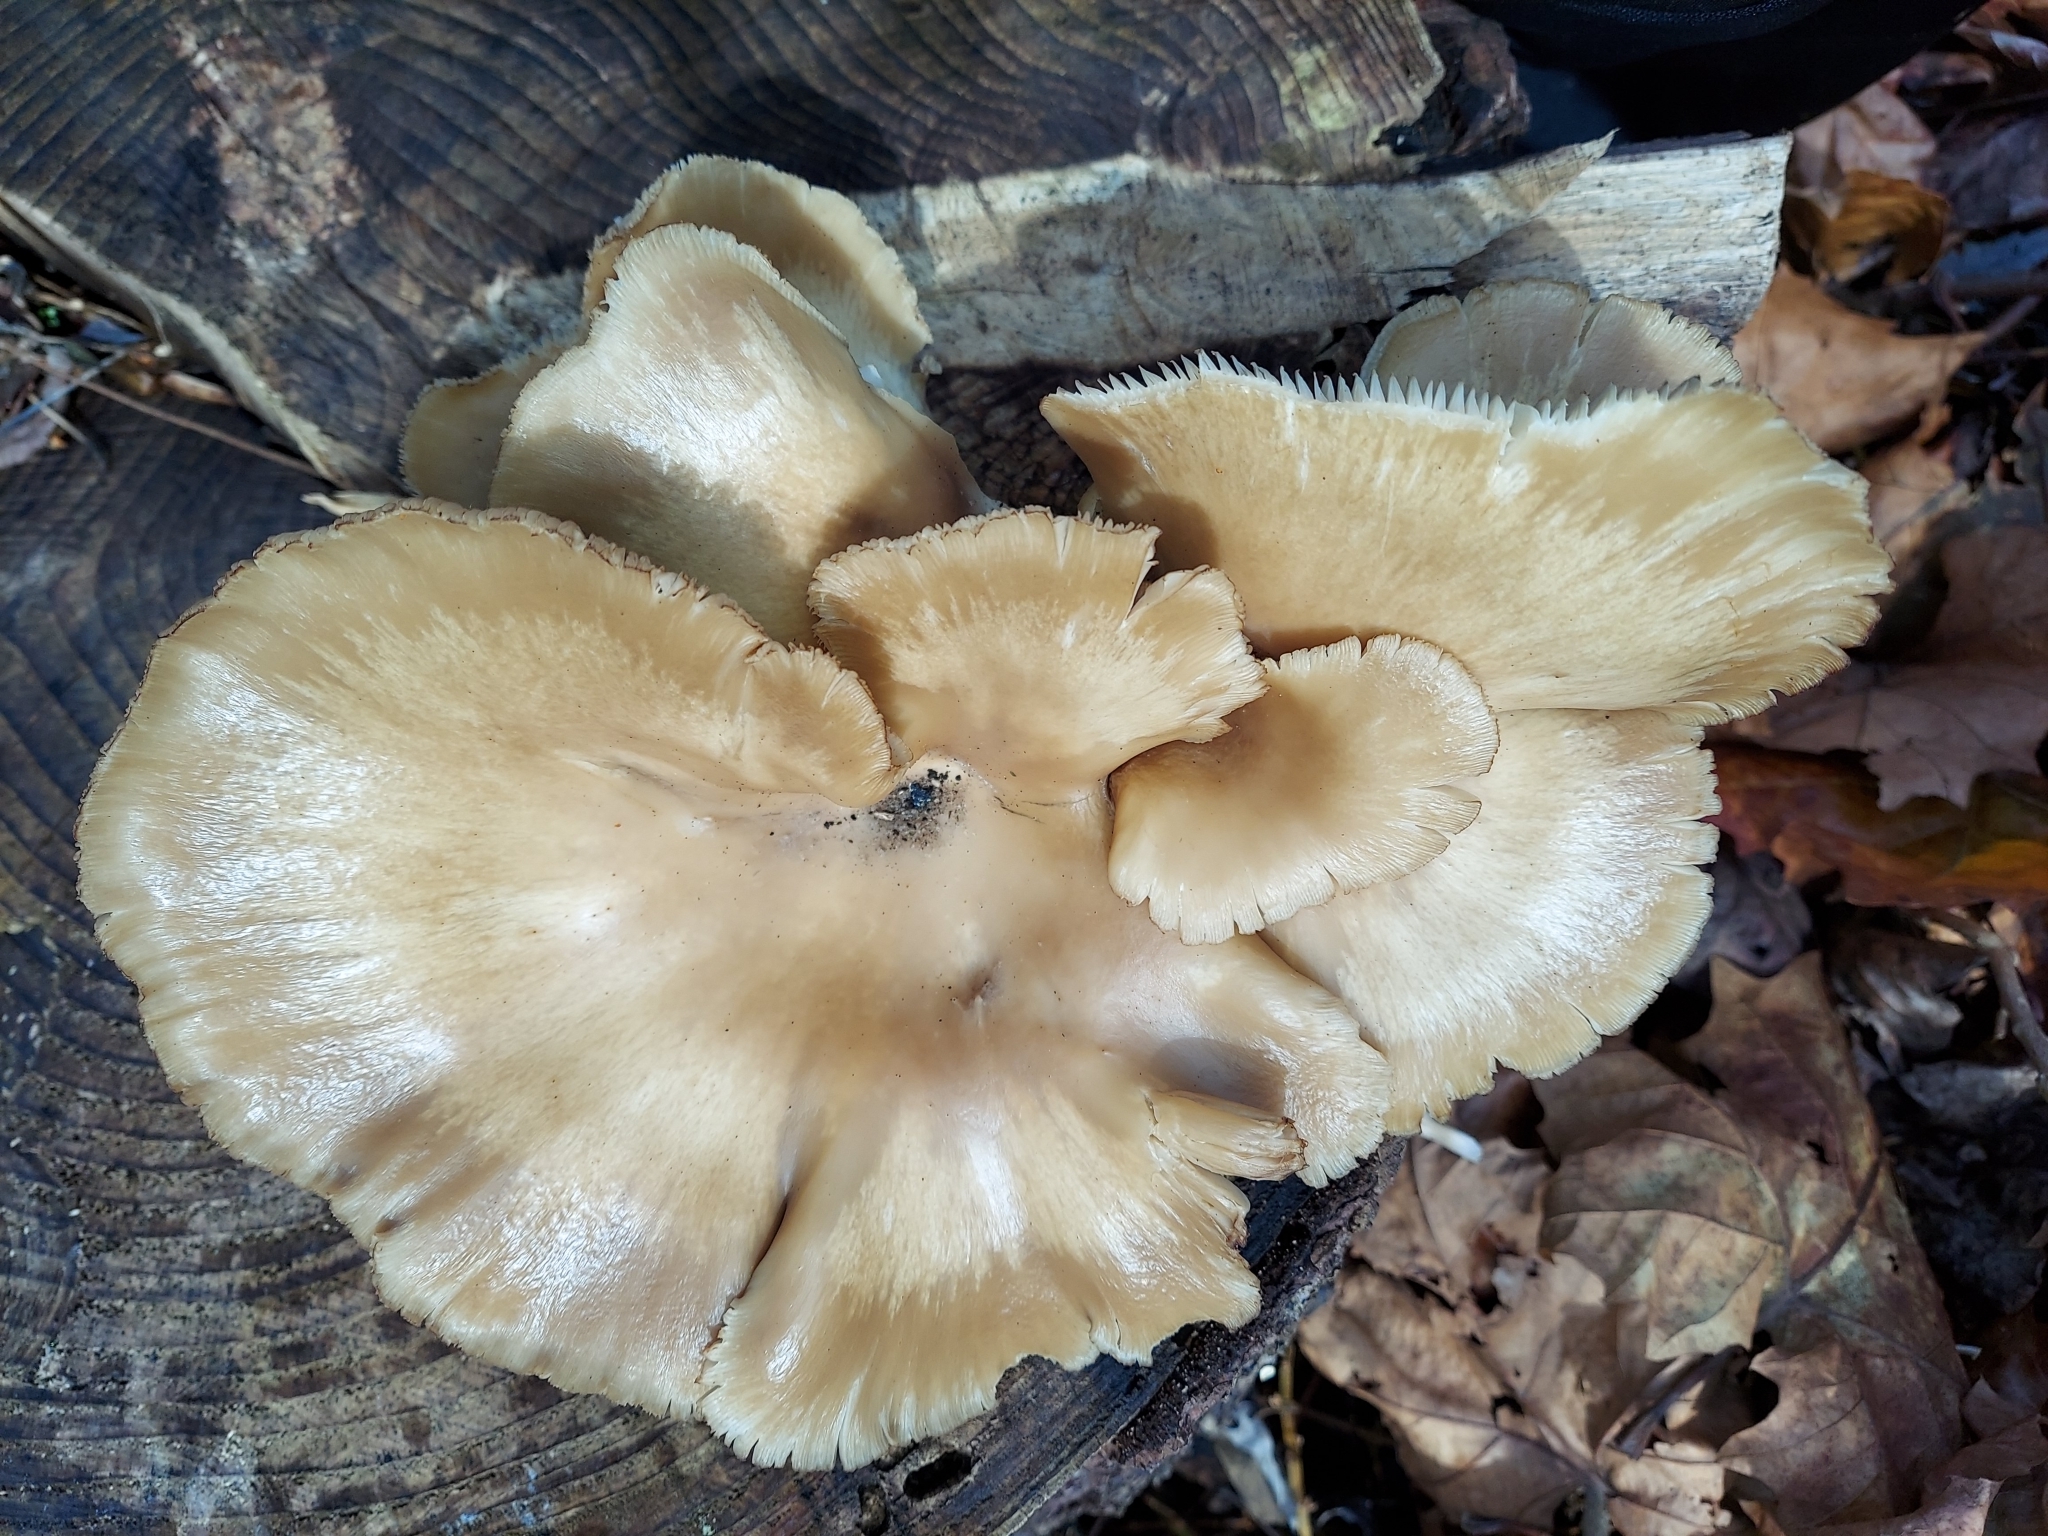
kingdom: Fungi
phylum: Basidiomycota
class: Agaricomycetes
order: Agaricales
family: Pleurotaceae
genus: Pleurotus
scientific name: Pleurotus ostreatus
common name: Oyster mushroom
